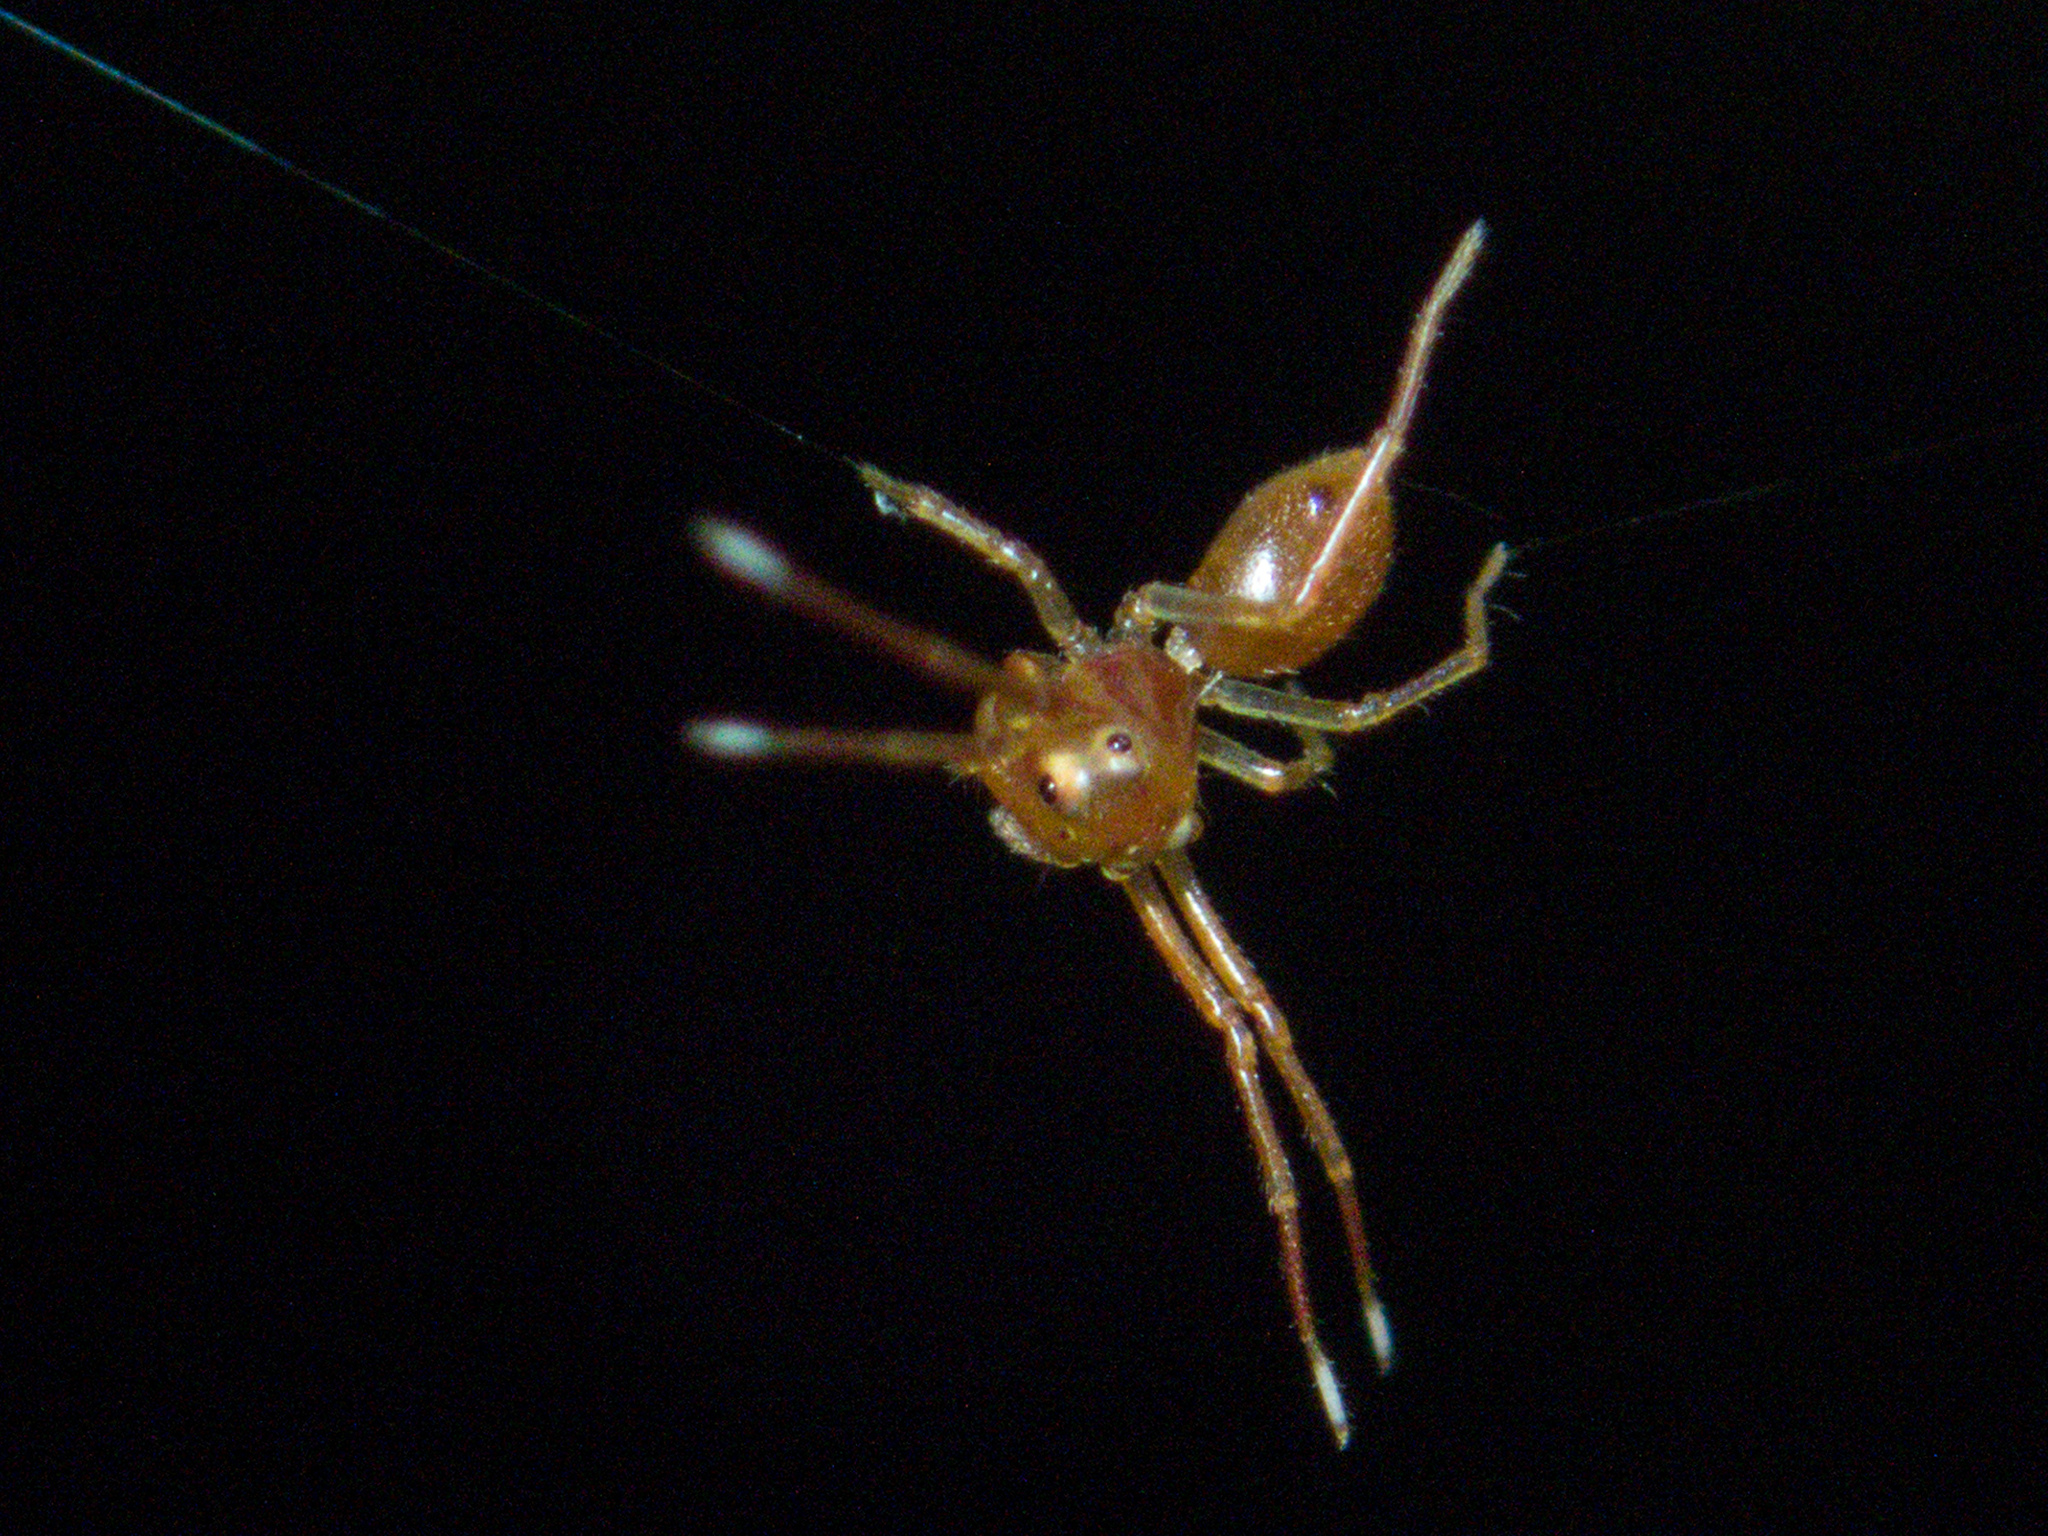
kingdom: Animalia
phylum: Arthropoda
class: Arachnida
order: Araneae
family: Thomisidae
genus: Amyciaea
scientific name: Amyciaea forticeps
